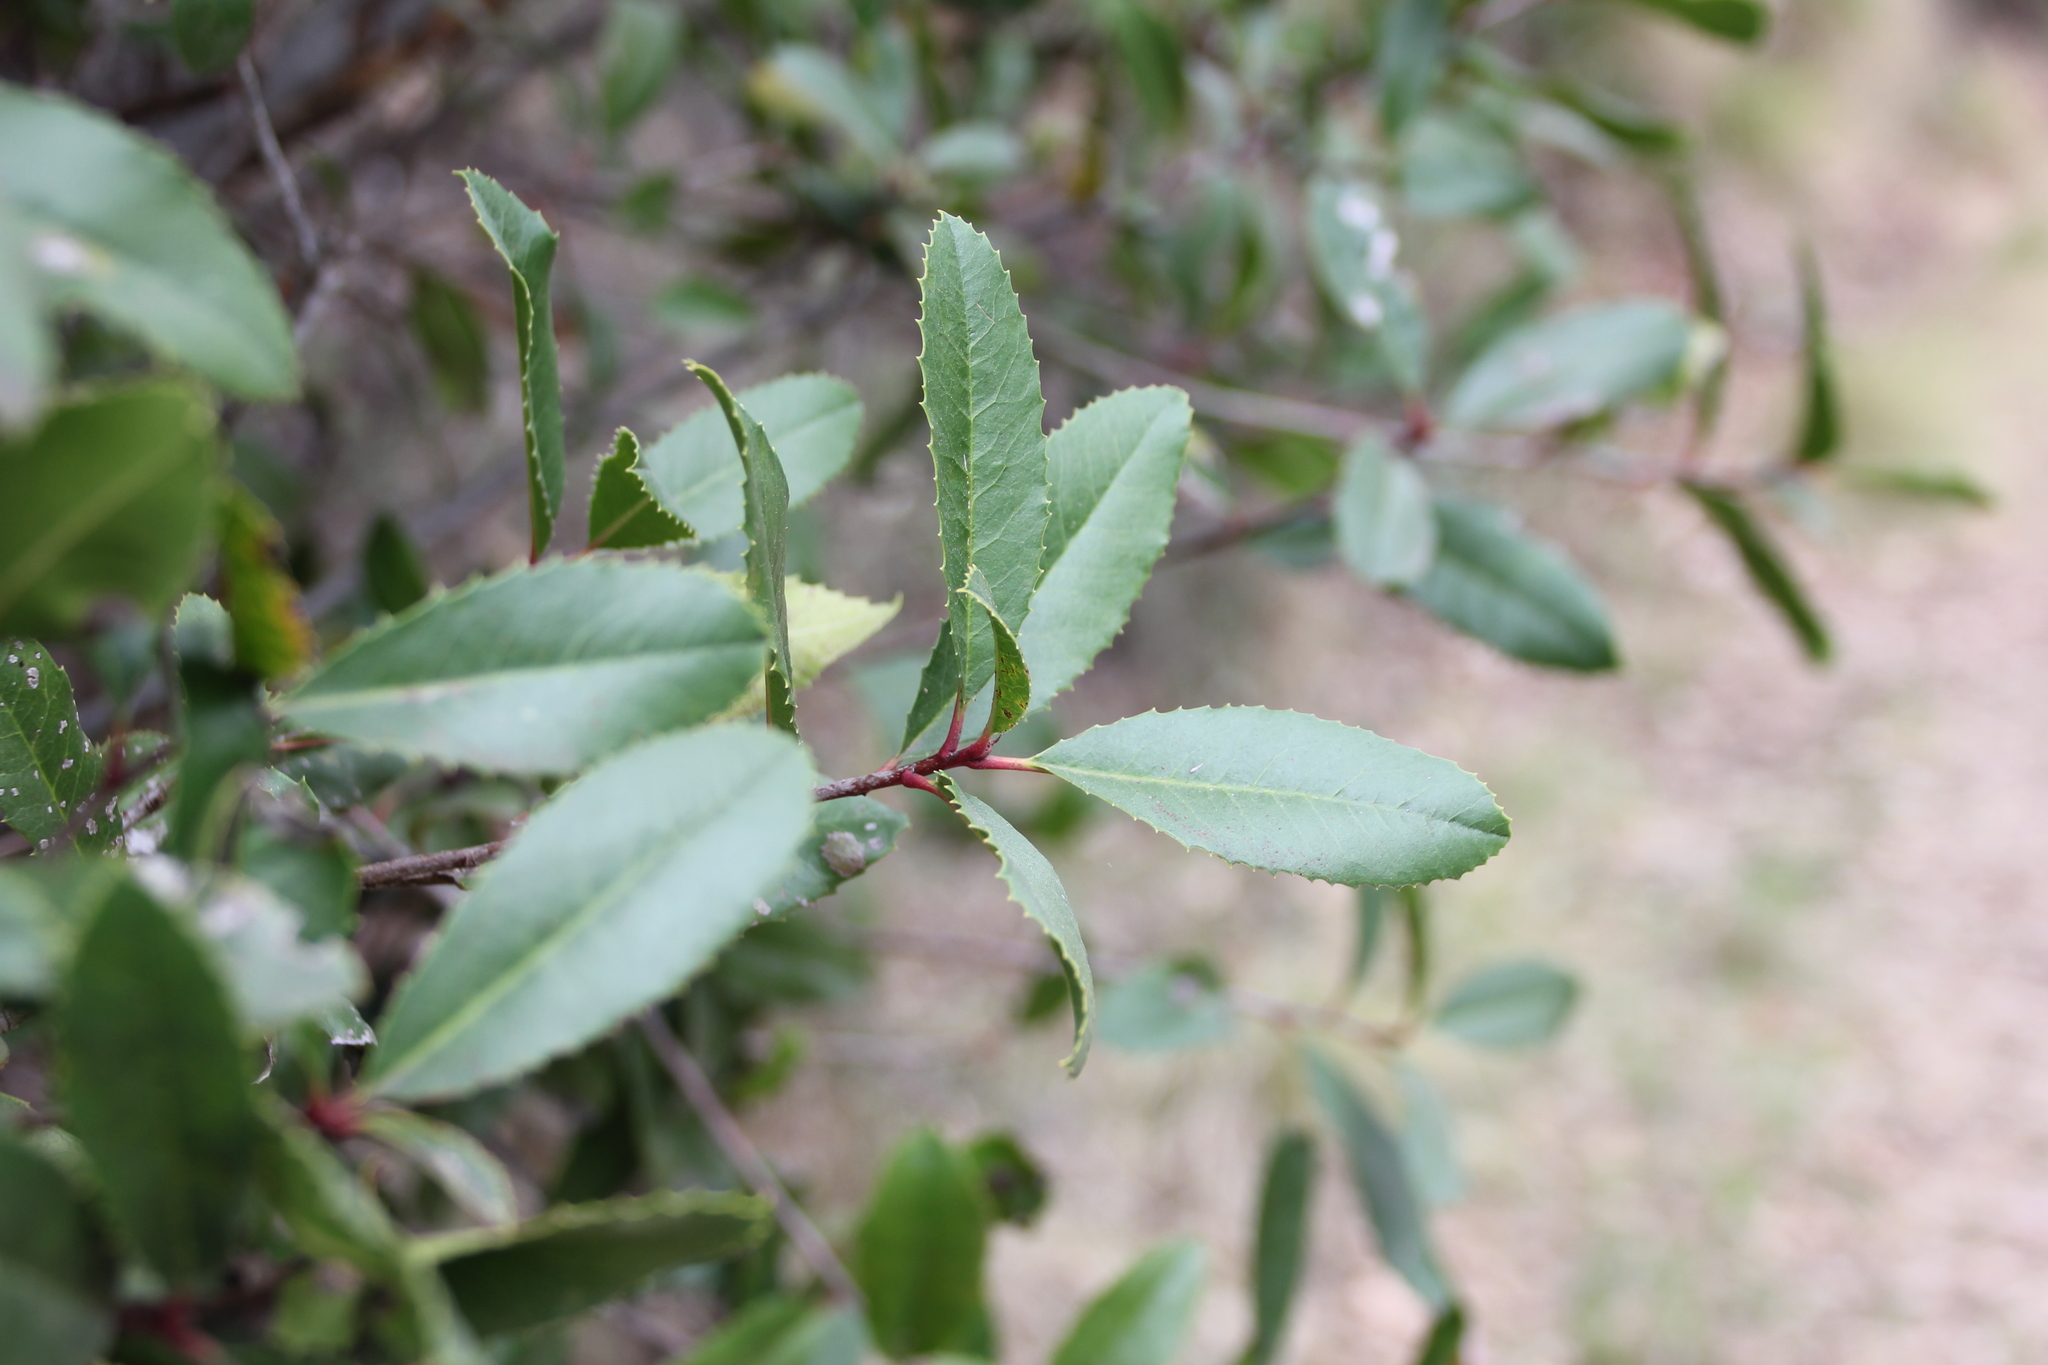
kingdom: Plantae
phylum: Tracheophyta
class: Magnoliopsida
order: Rosales
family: Rosaceae
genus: Heteromeles
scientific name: Heteromeles arbutifolia
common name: California-holly
